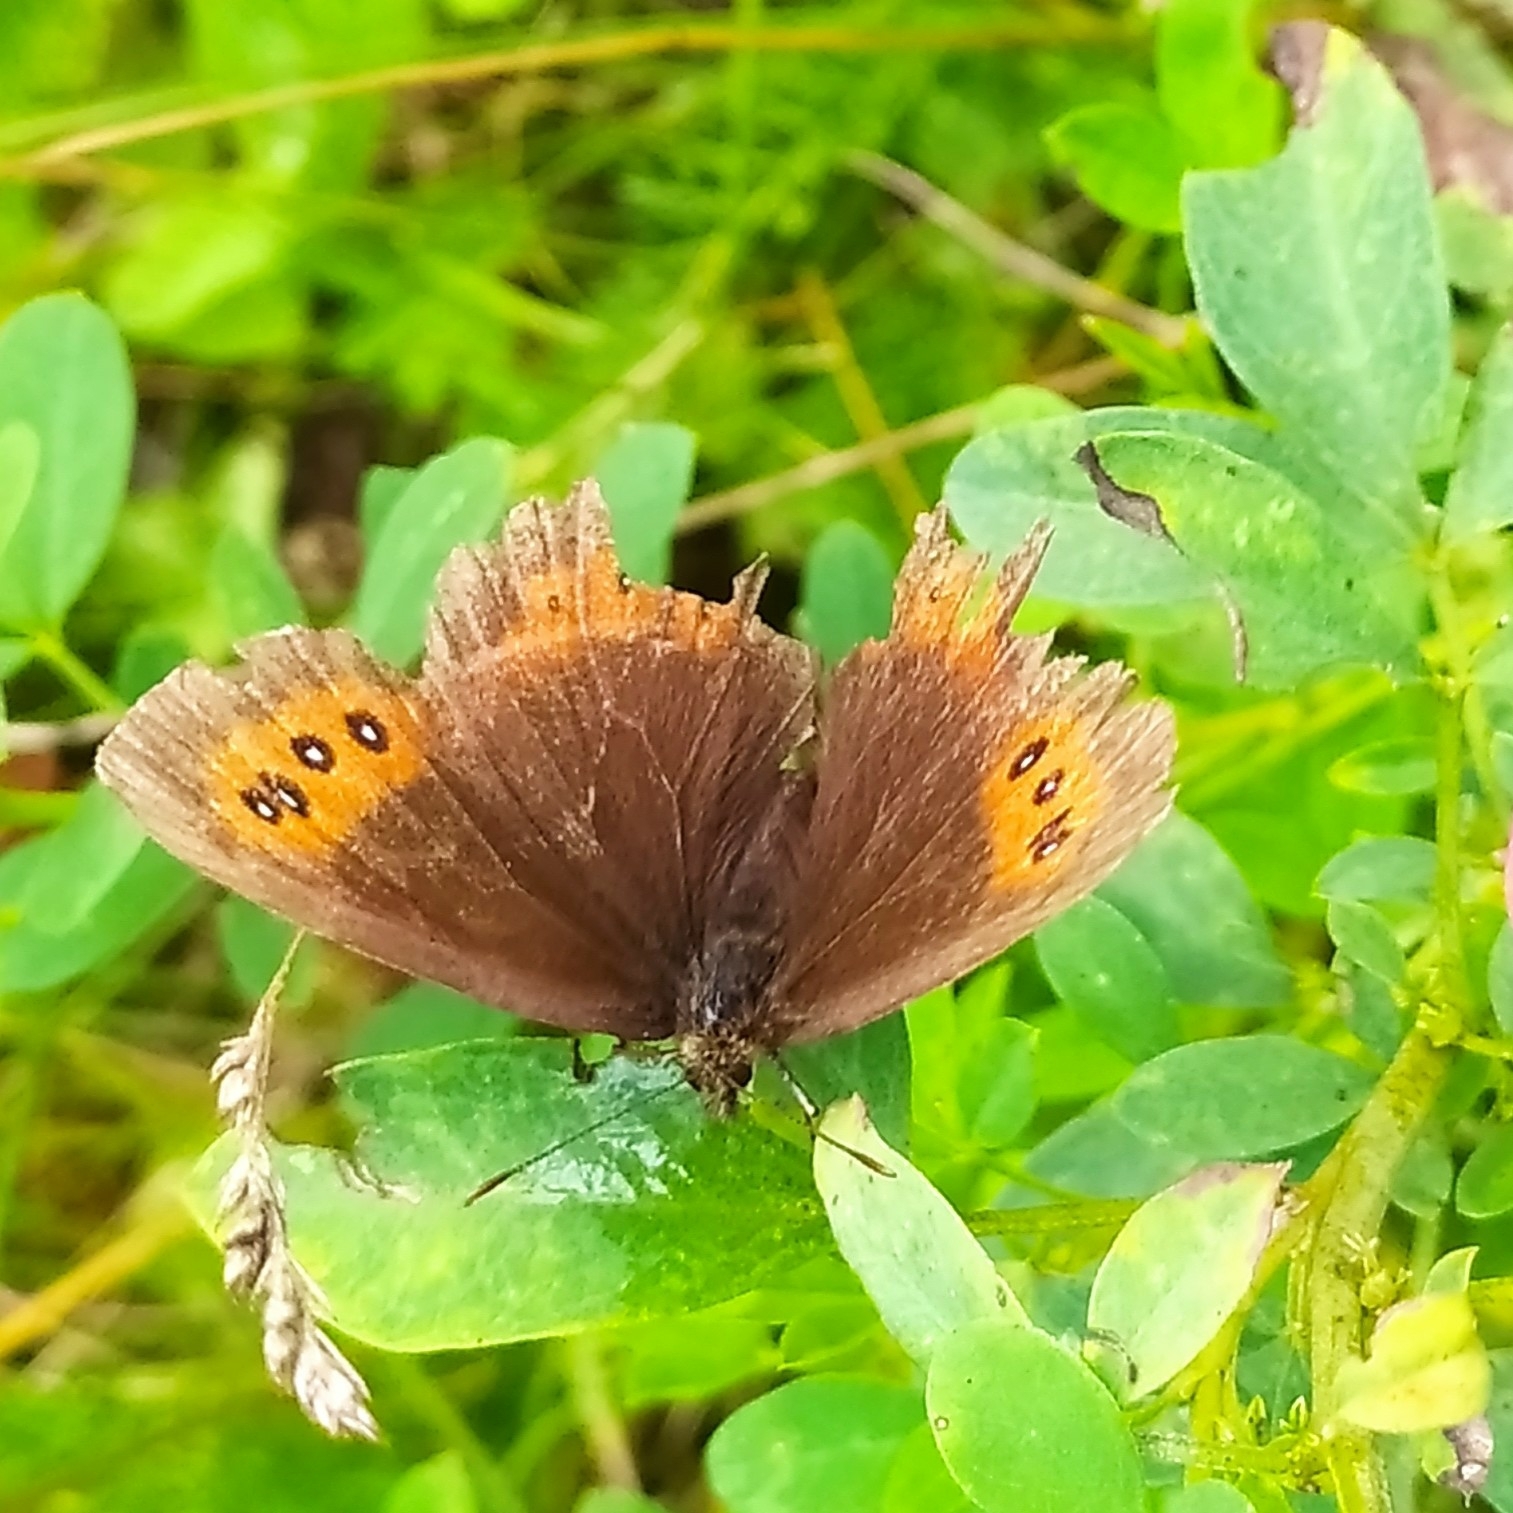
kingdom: Animalia
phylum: Arthropoda
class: Insecta
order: Lepidoptera
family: Nymphalidae
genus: Erebia
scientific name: Erebia ligea
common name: Arran brown
